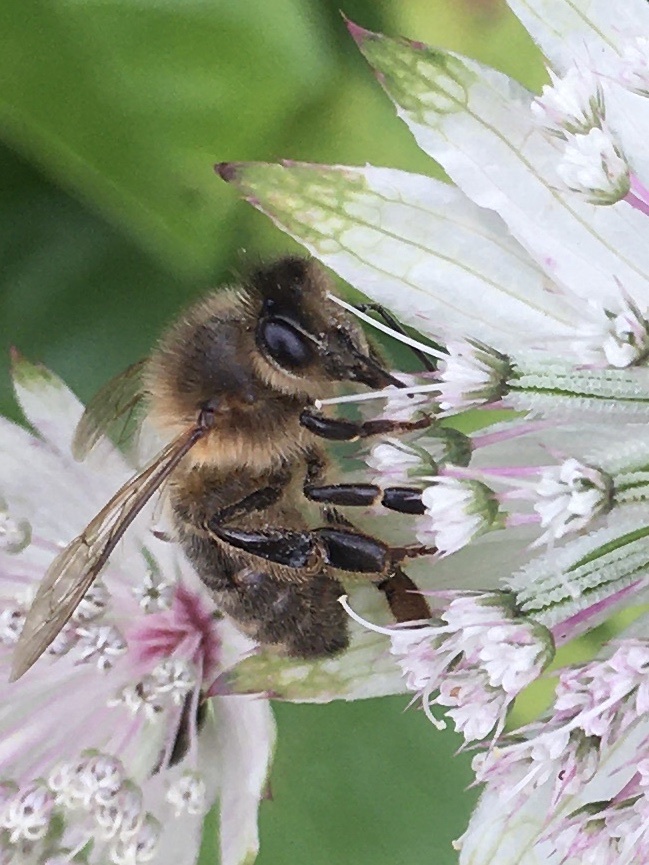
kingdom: Animalia
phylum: Arthropoda
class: Insecta
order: Hymenoptera
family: Apidae
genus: Apis
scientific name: Apis mellifera
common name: Honey bee
